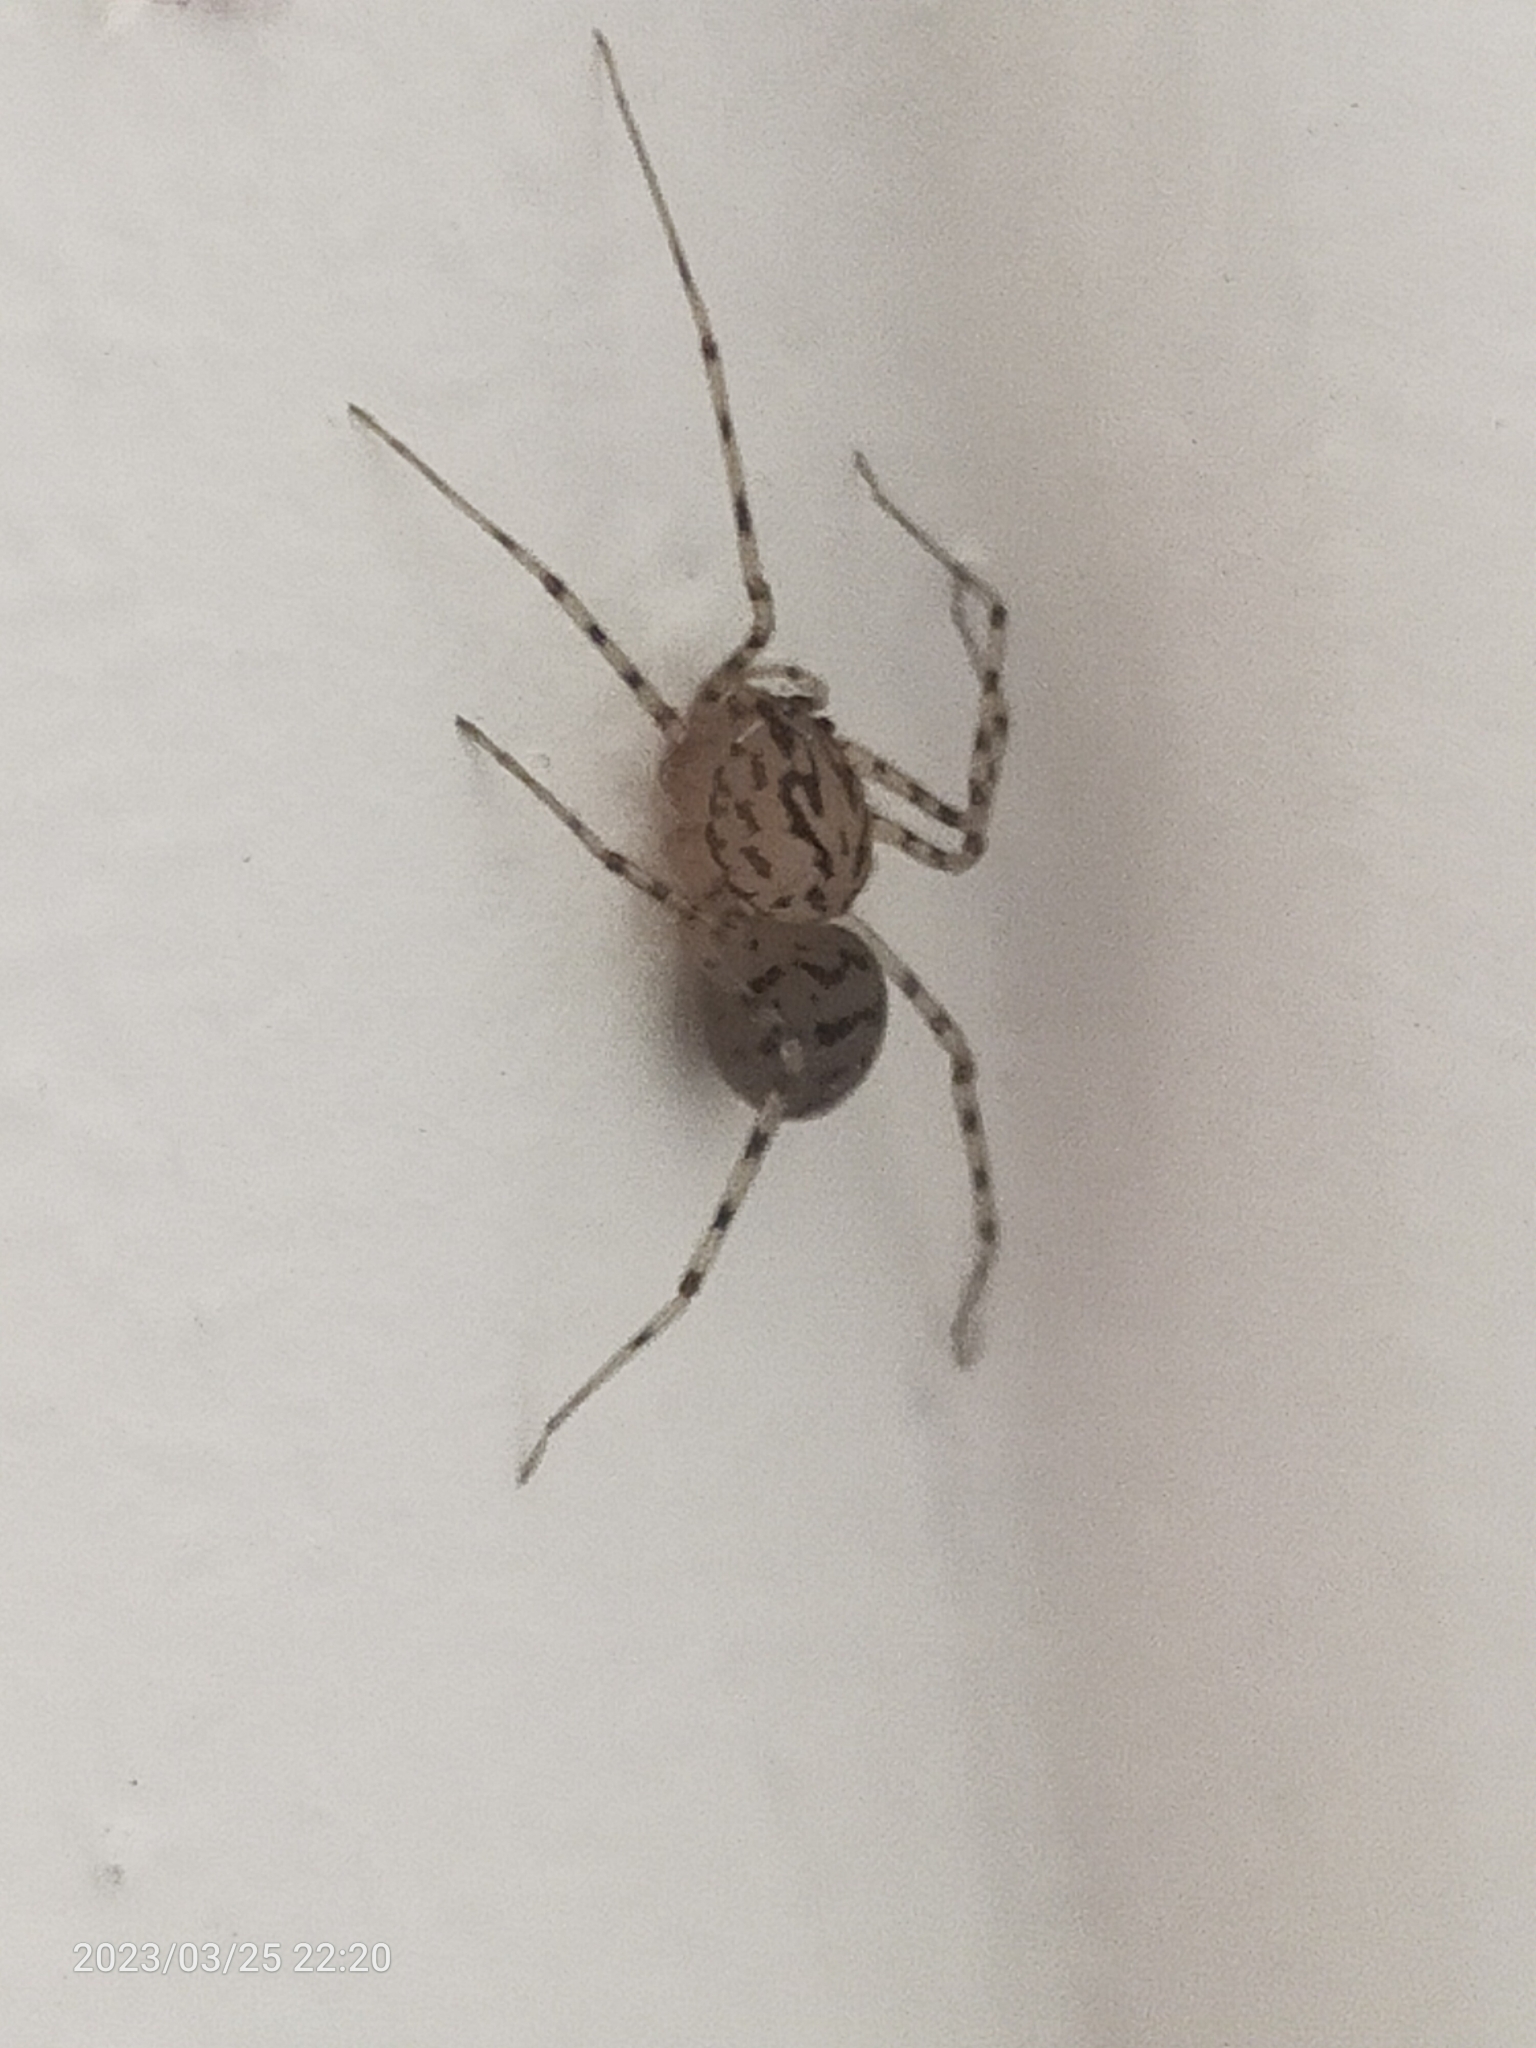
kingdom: Animalia
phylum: Arthropoda
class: Arachnida
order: Araneae
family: Scytodidae
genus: Scytodes
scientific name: Scytodes thoracica
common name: Spitting spider
